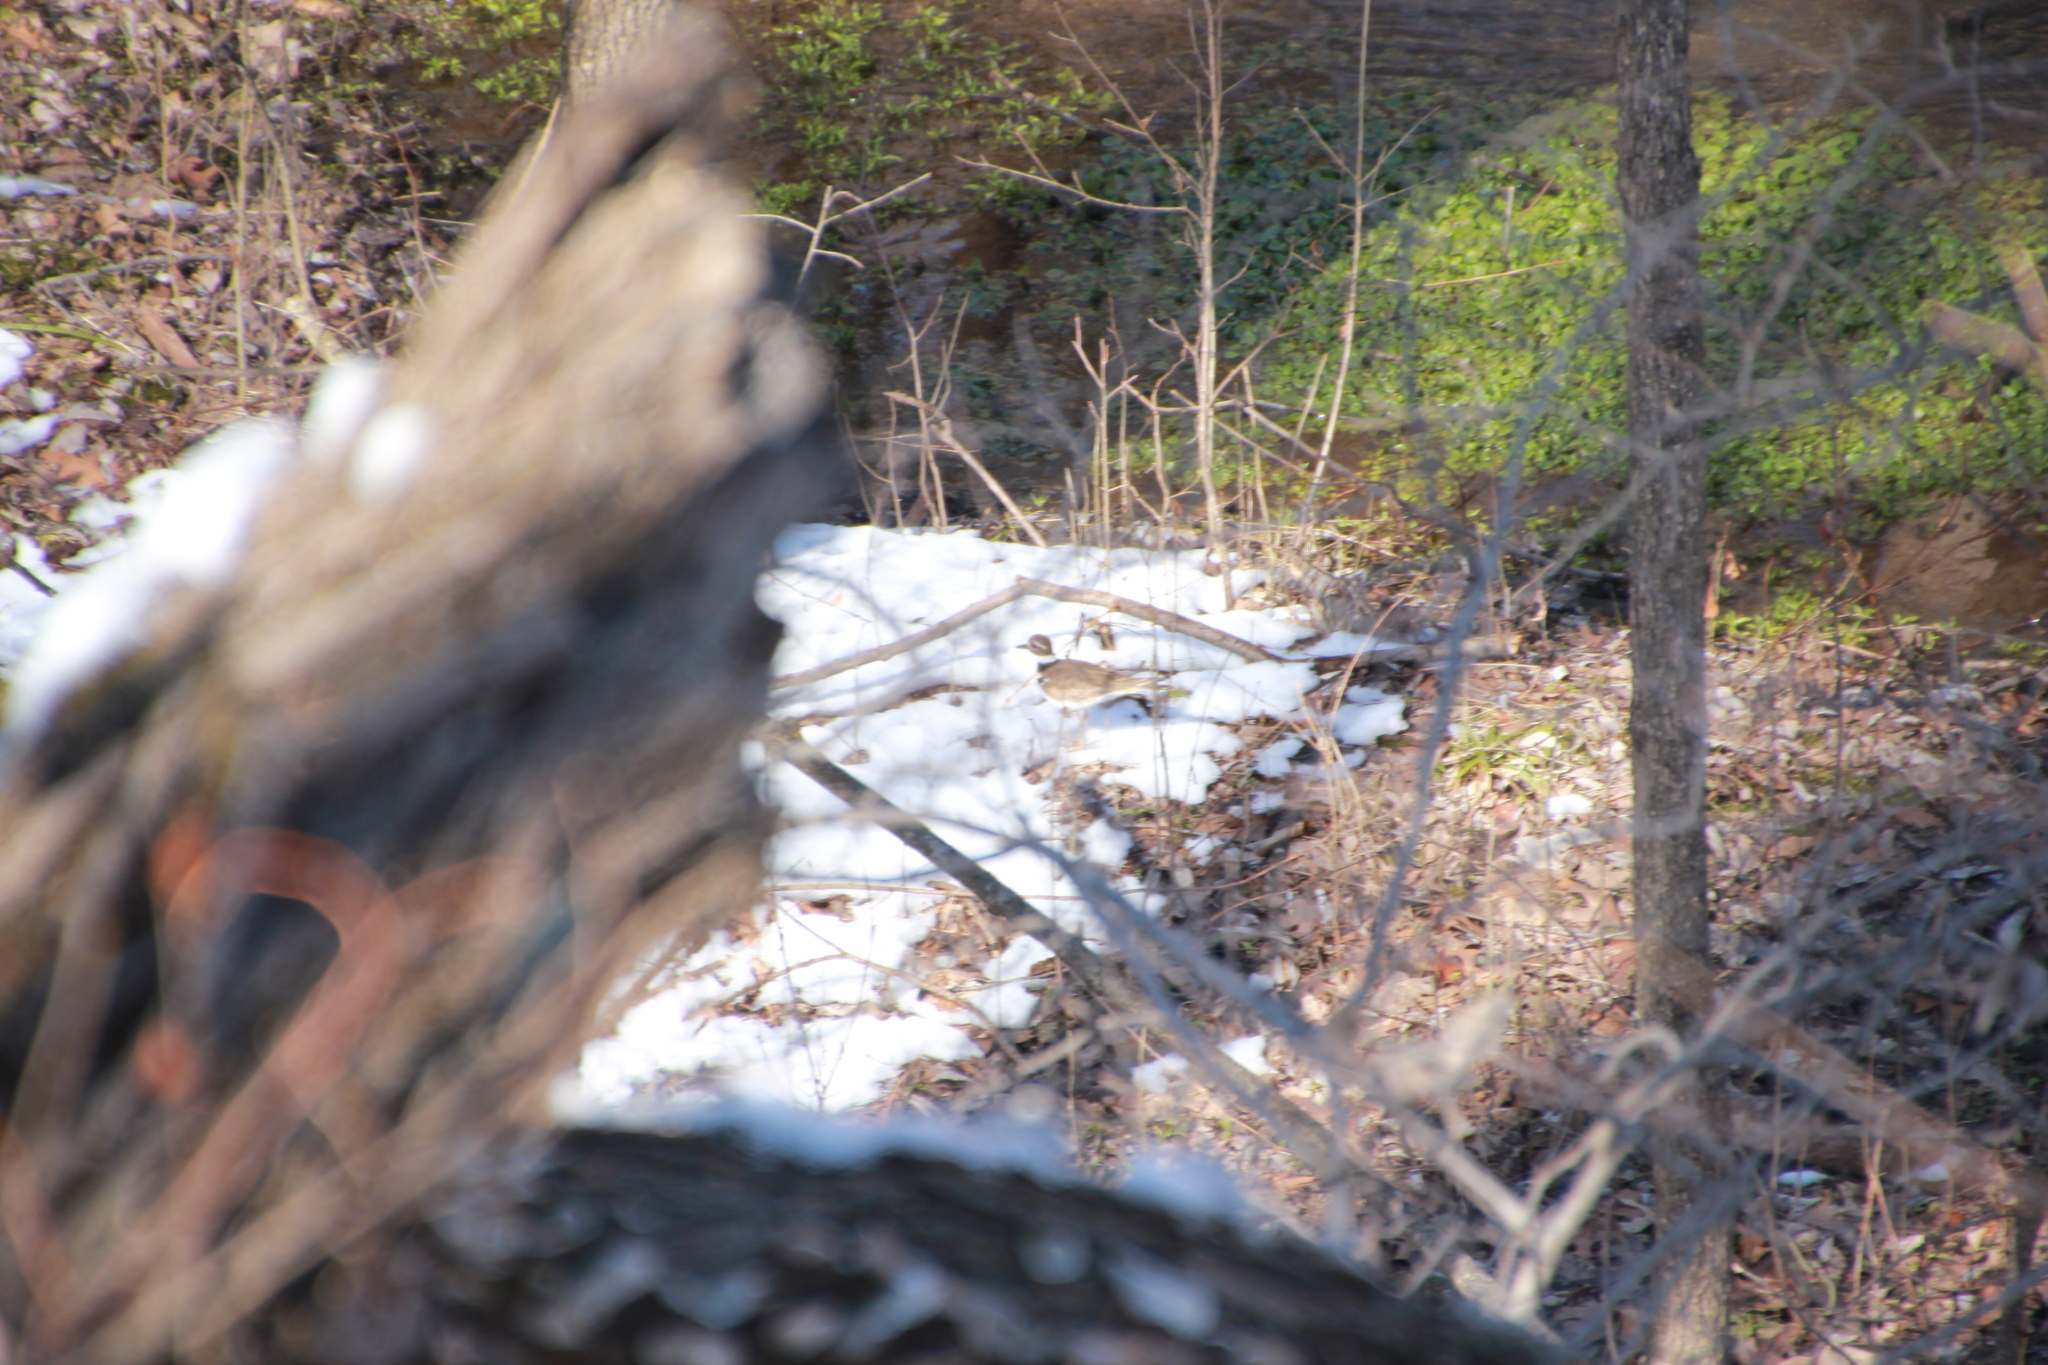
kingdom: Animalia
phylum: Chordata
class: Aves
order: Charadriiformes
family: Charadriidae
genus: Charadrius
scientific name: Charadrius vociferus
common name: Killdeer
